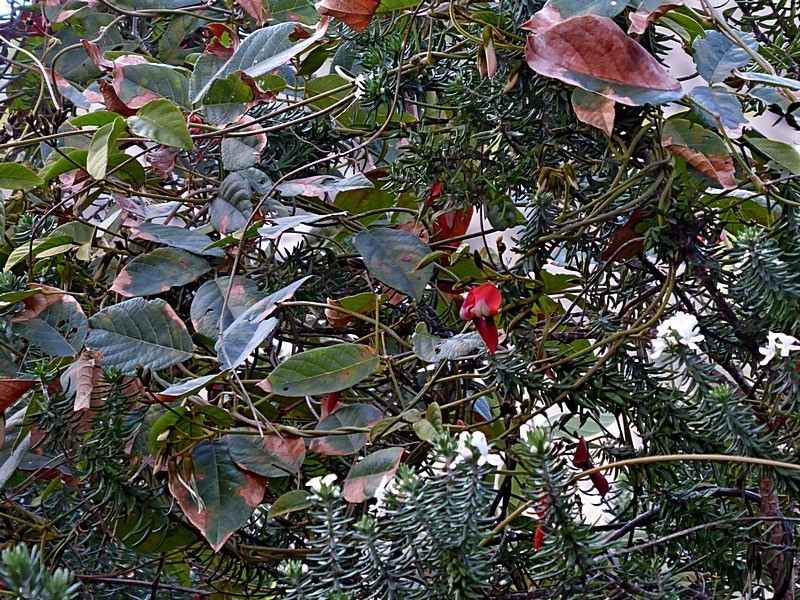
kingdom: Plantae
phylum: Tracheophyta
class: Magnoliopsida
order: Fabales
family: Fabaceae
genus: Kennedia
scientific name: Kennedia rubicunda
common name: Red kennedy-pea
